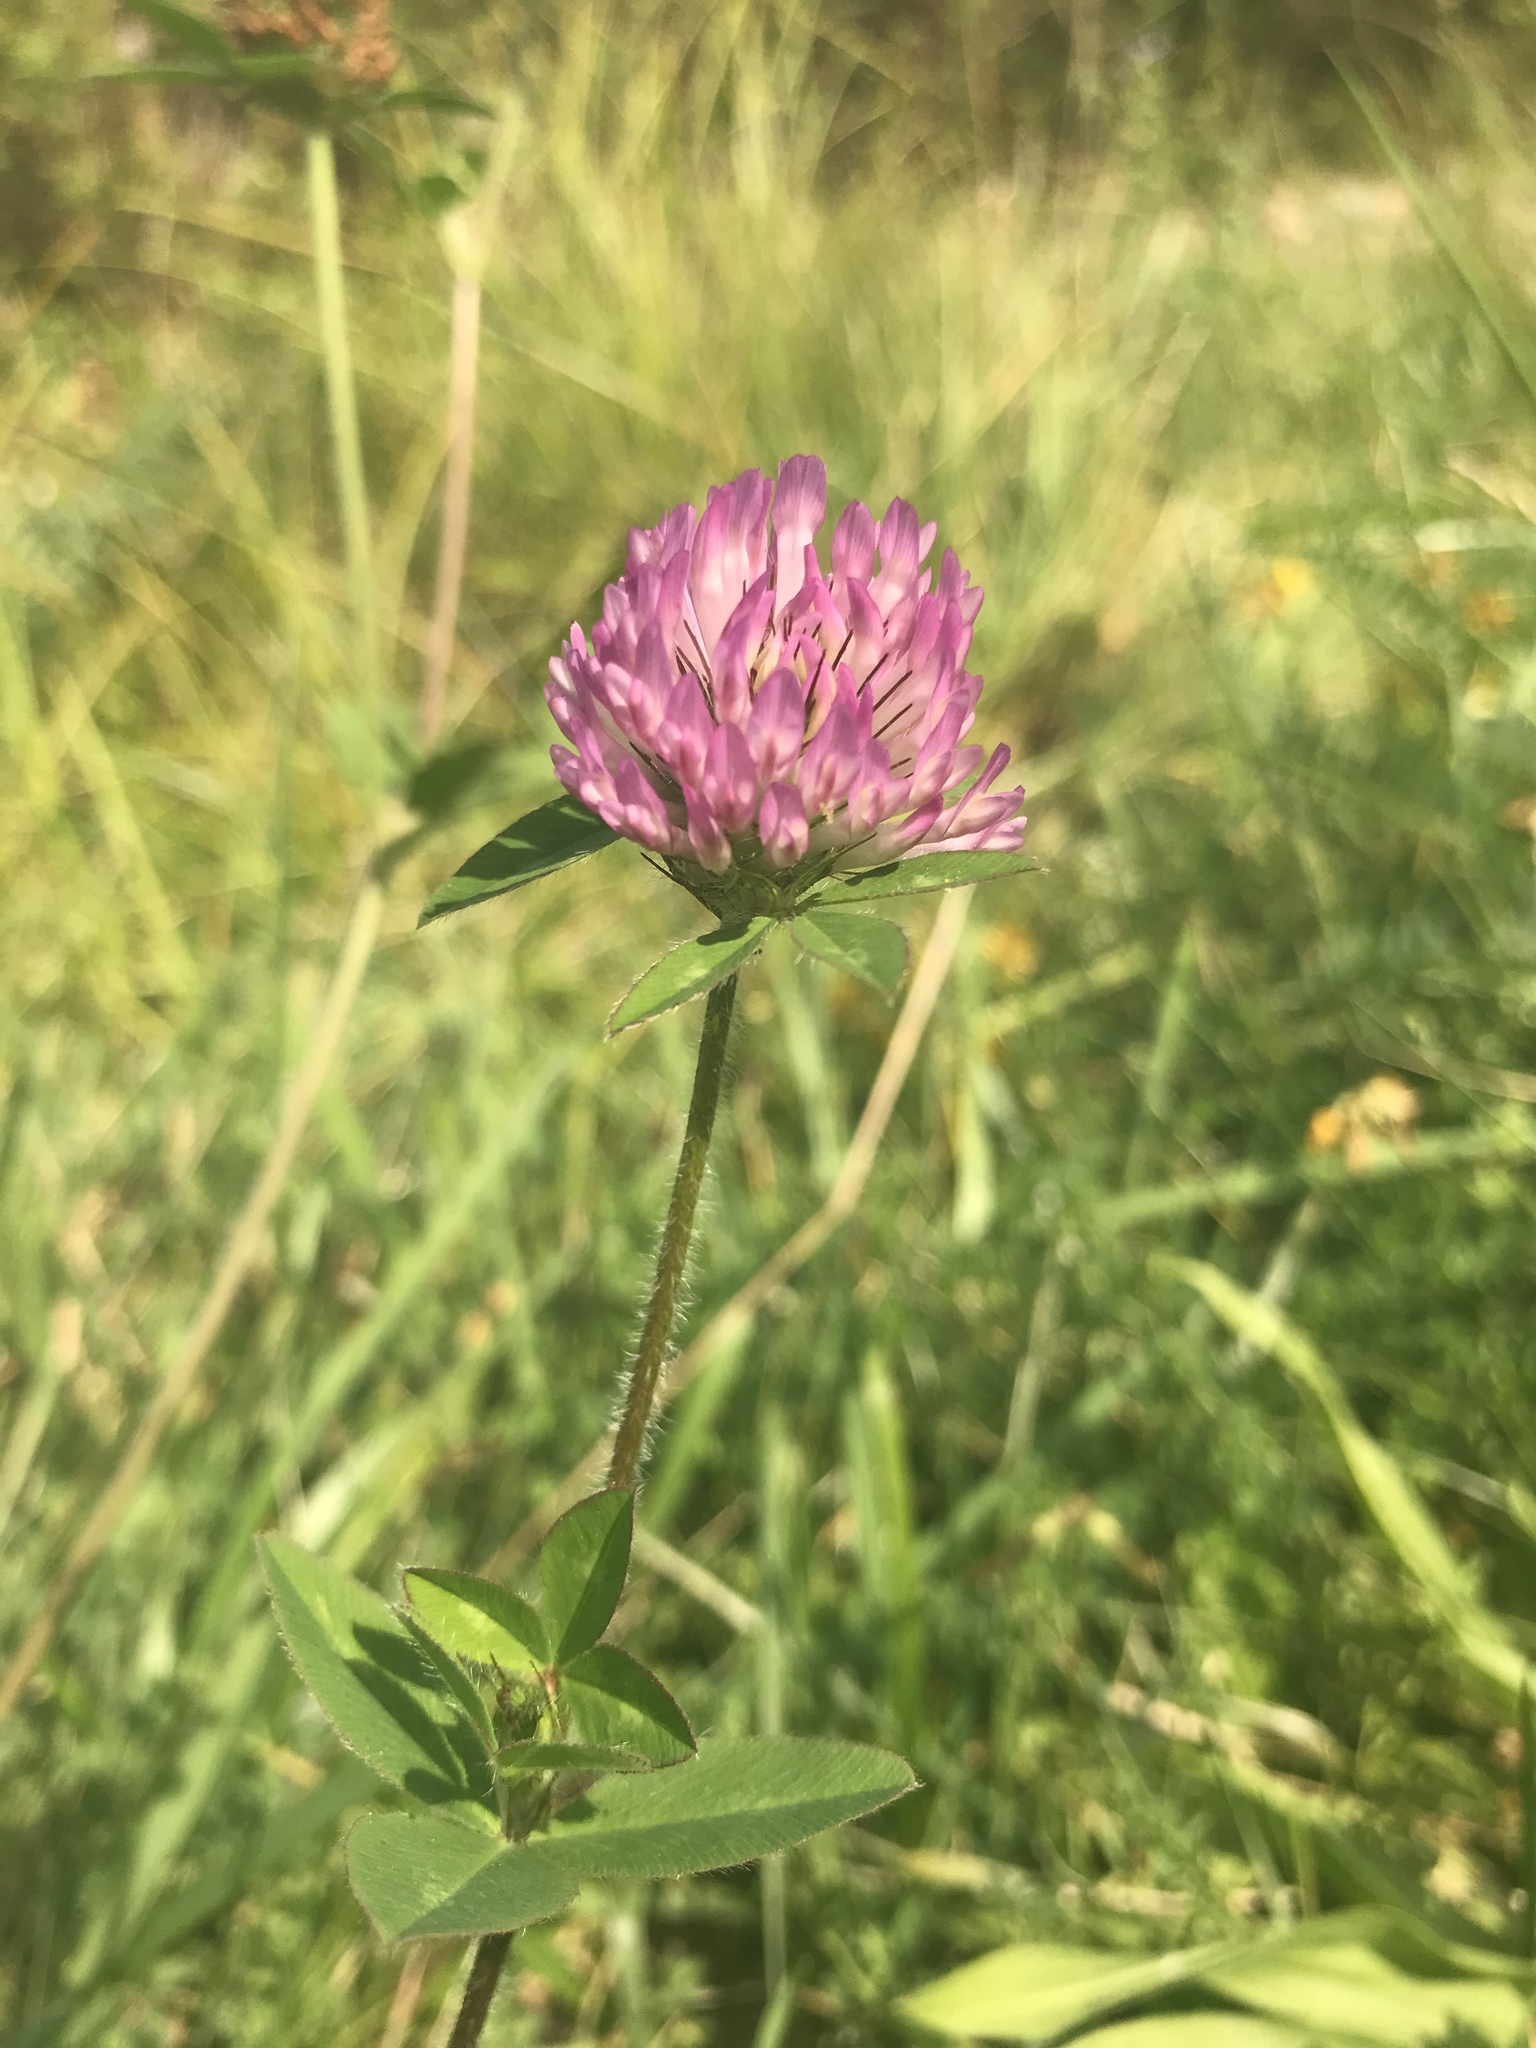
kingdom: Plantae
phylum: Tracheophyta
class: Magnoliopsida
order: Fabales
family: Fabaceae
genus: Trifolium
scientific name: Trifolium pratense
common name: Red clover
